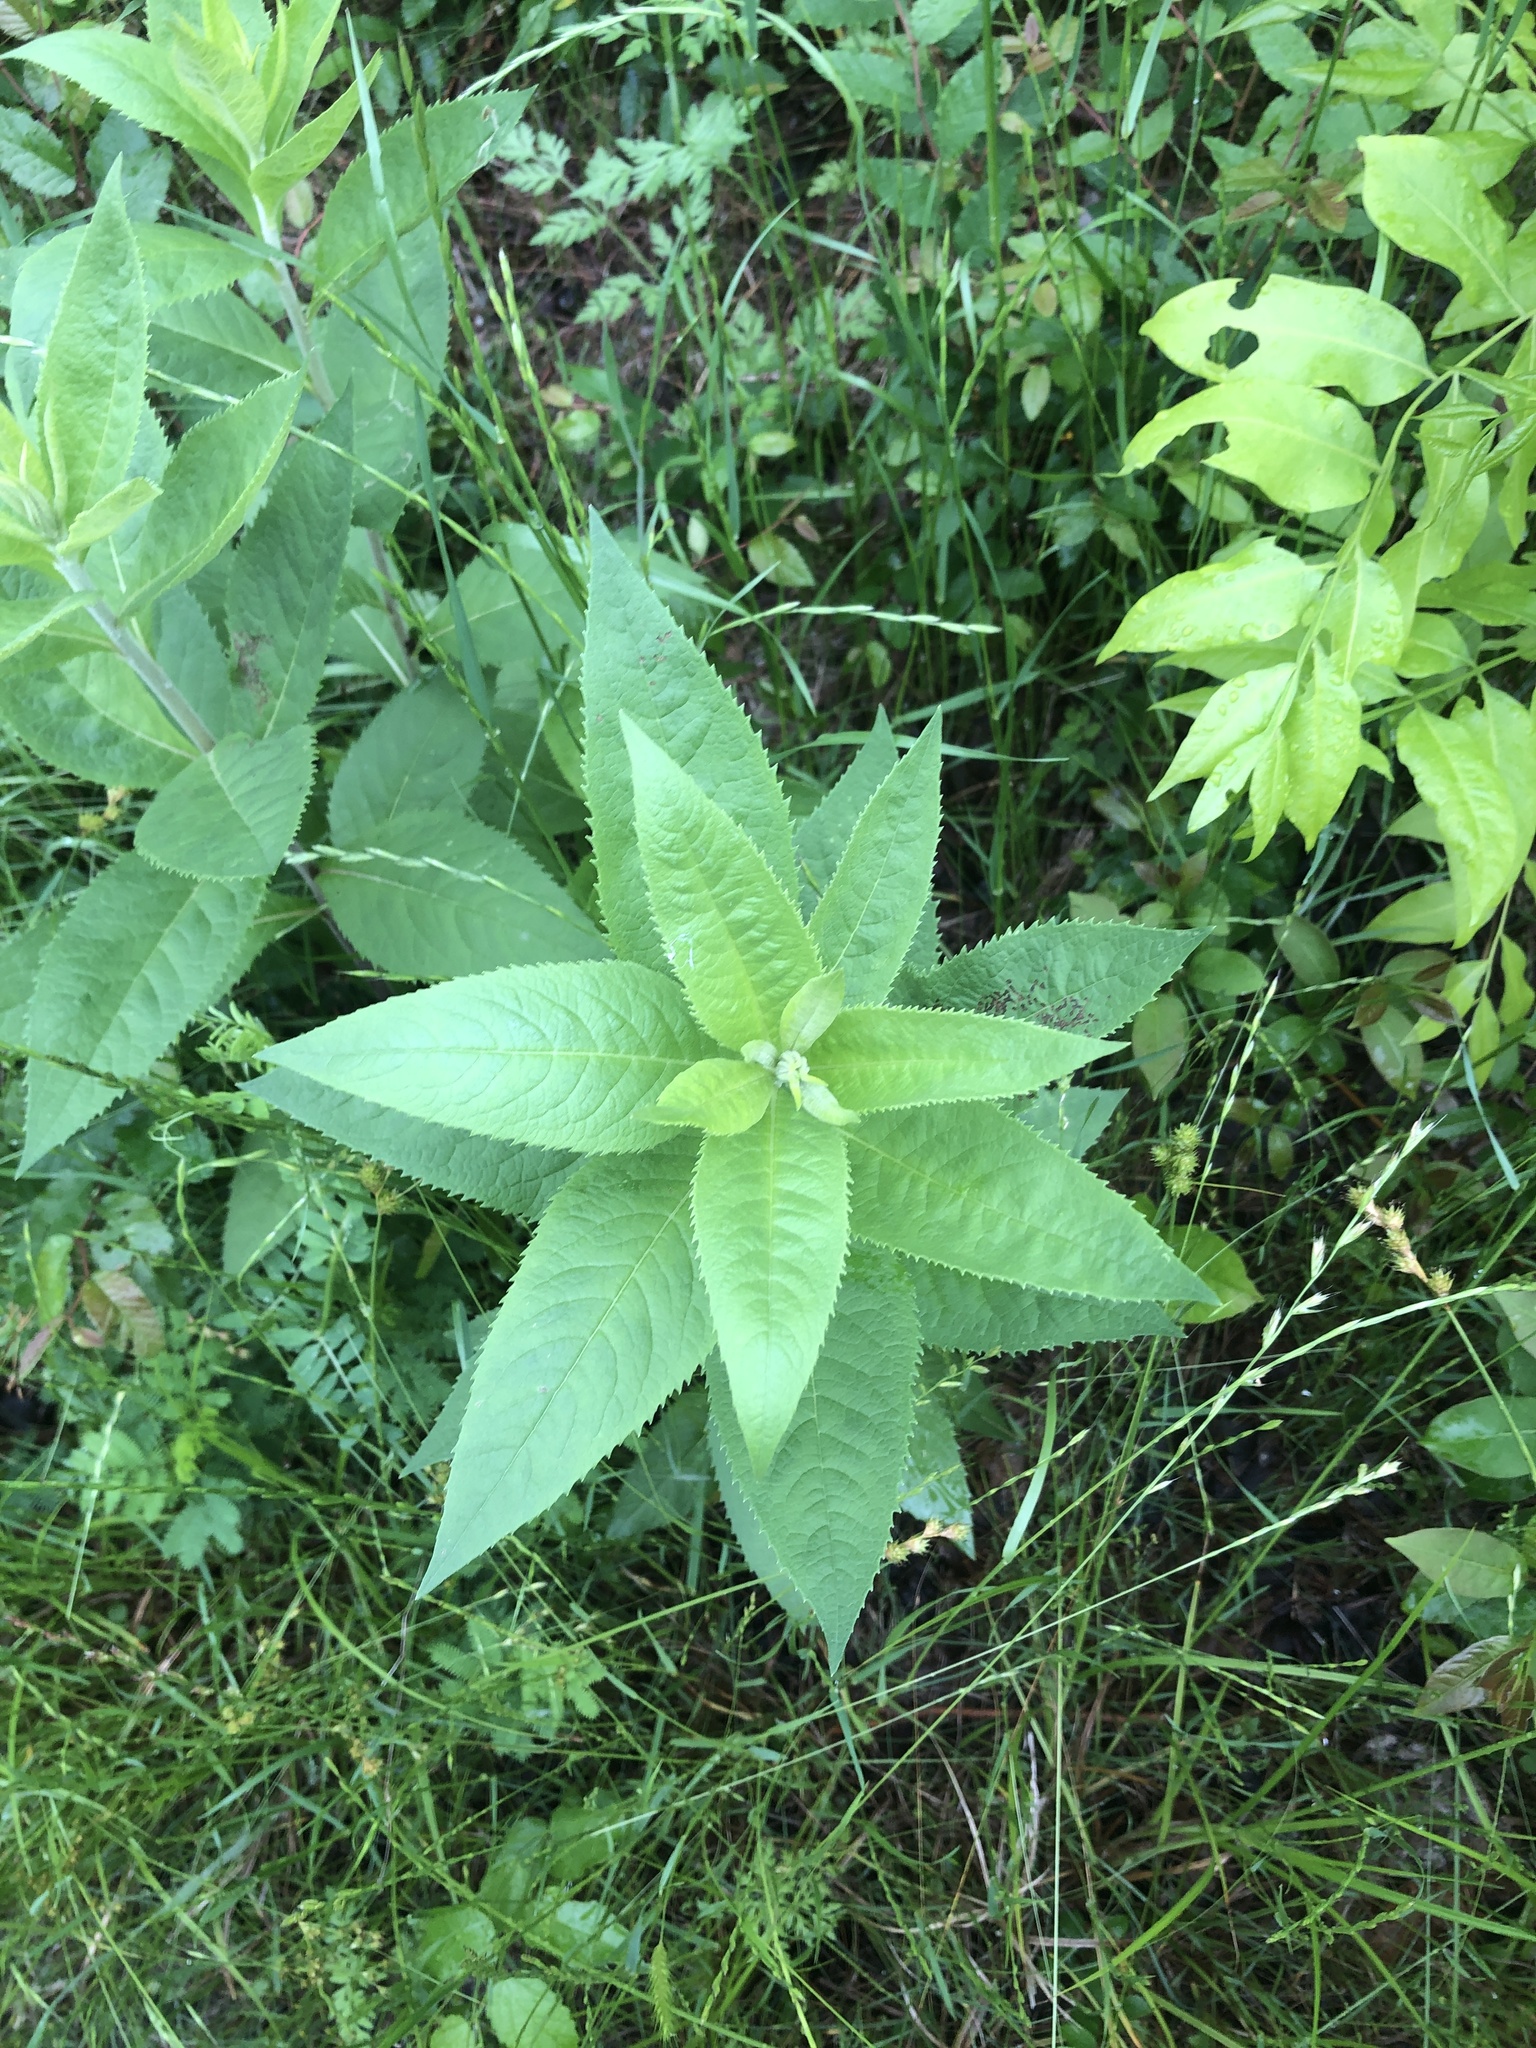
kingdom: Plantae
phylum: Tracheophyta
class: Magnoliopsida
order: Asterales
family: Asteraceae
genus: Vernonia
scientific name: Vernonia baldwinii
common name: Western ironweed
